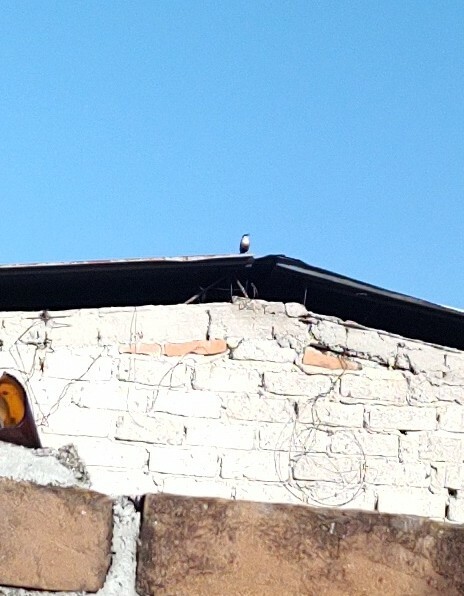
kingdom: Animalia
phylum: Chordata
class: Aves
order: Passeriformes
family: Troglodytidae
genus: Catherpes
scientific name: Catherpes mexicanus
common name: Canyon wren
